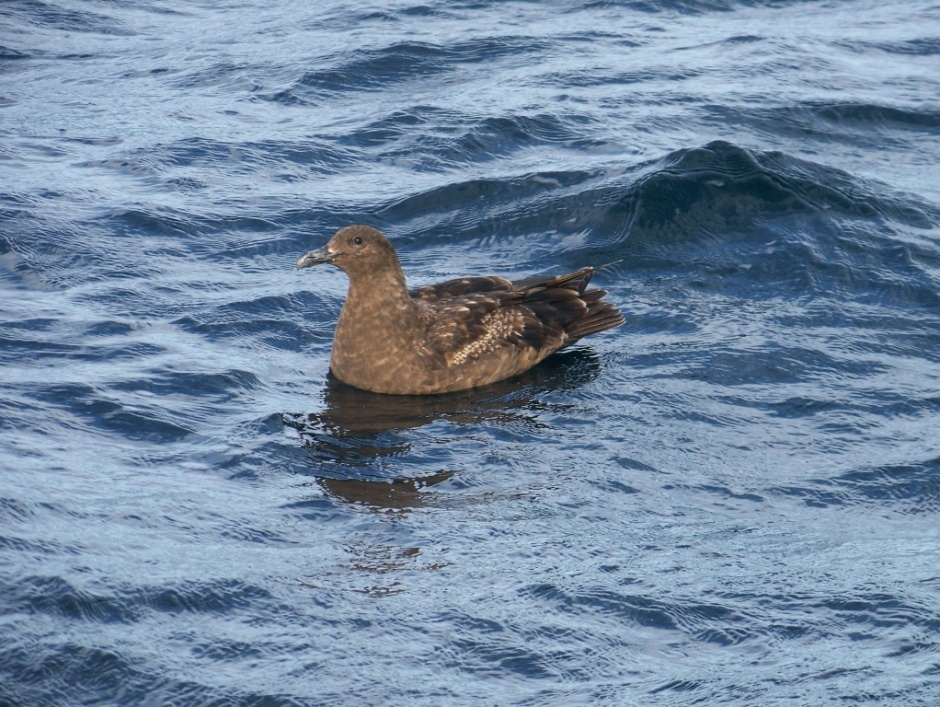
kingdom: Animalia
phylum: Chordata
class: Aves
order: Charadriiformes
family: Stercorariidae
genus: Stercorarius
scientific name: Stercorarius antarcticus
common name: Brown skua
